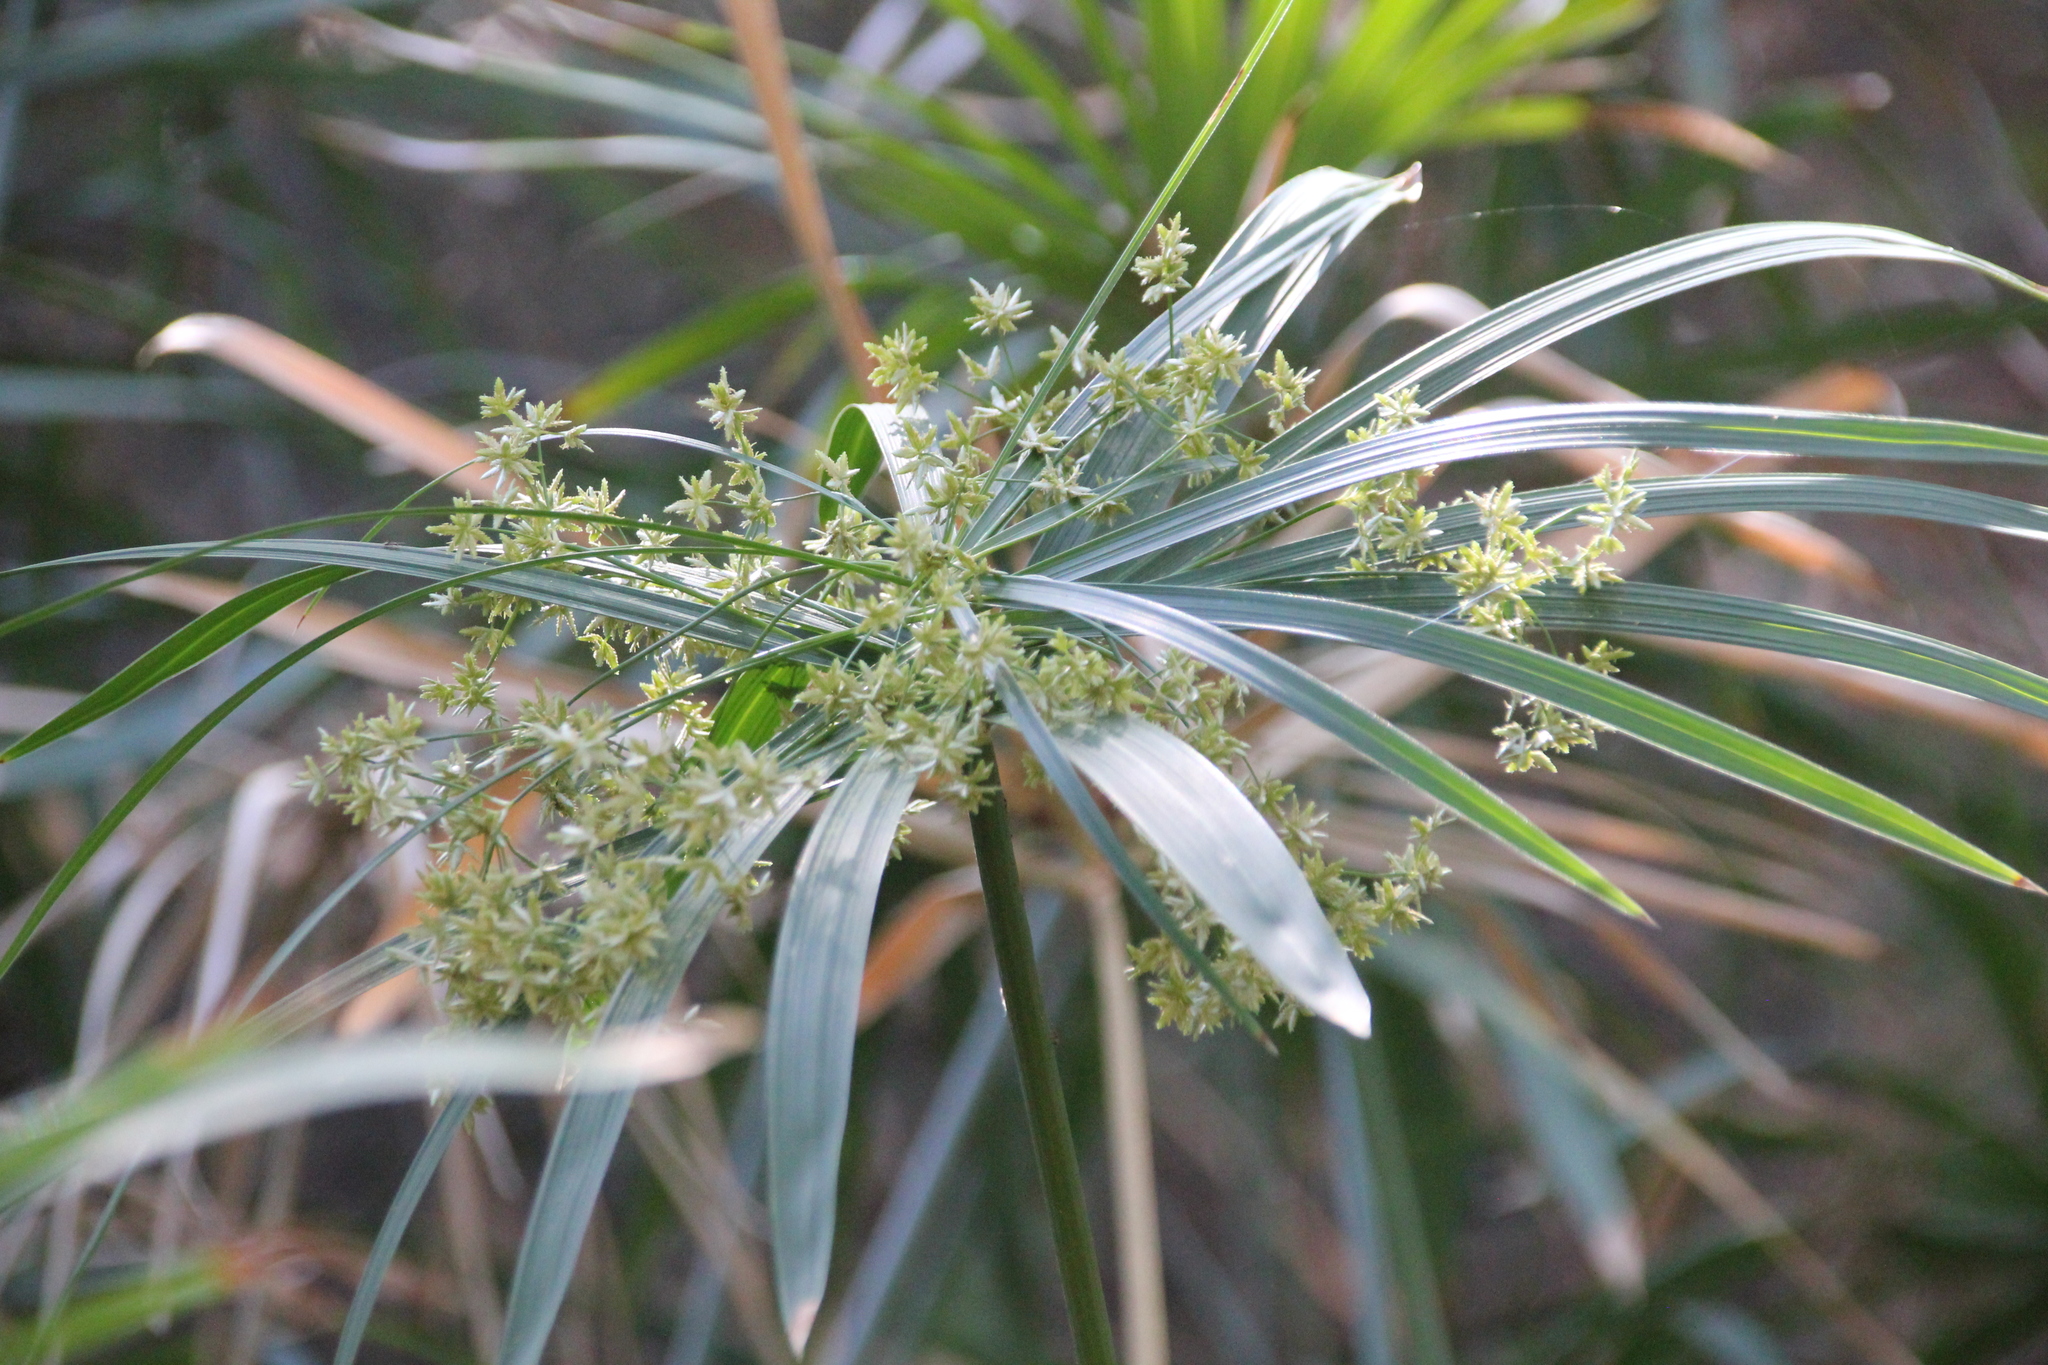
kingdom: Plantae
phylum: Tracheophyta
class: Liliopsida
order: Poales
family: Cyperaceae
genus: Cyperus
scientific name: Cyperus alternifolius
